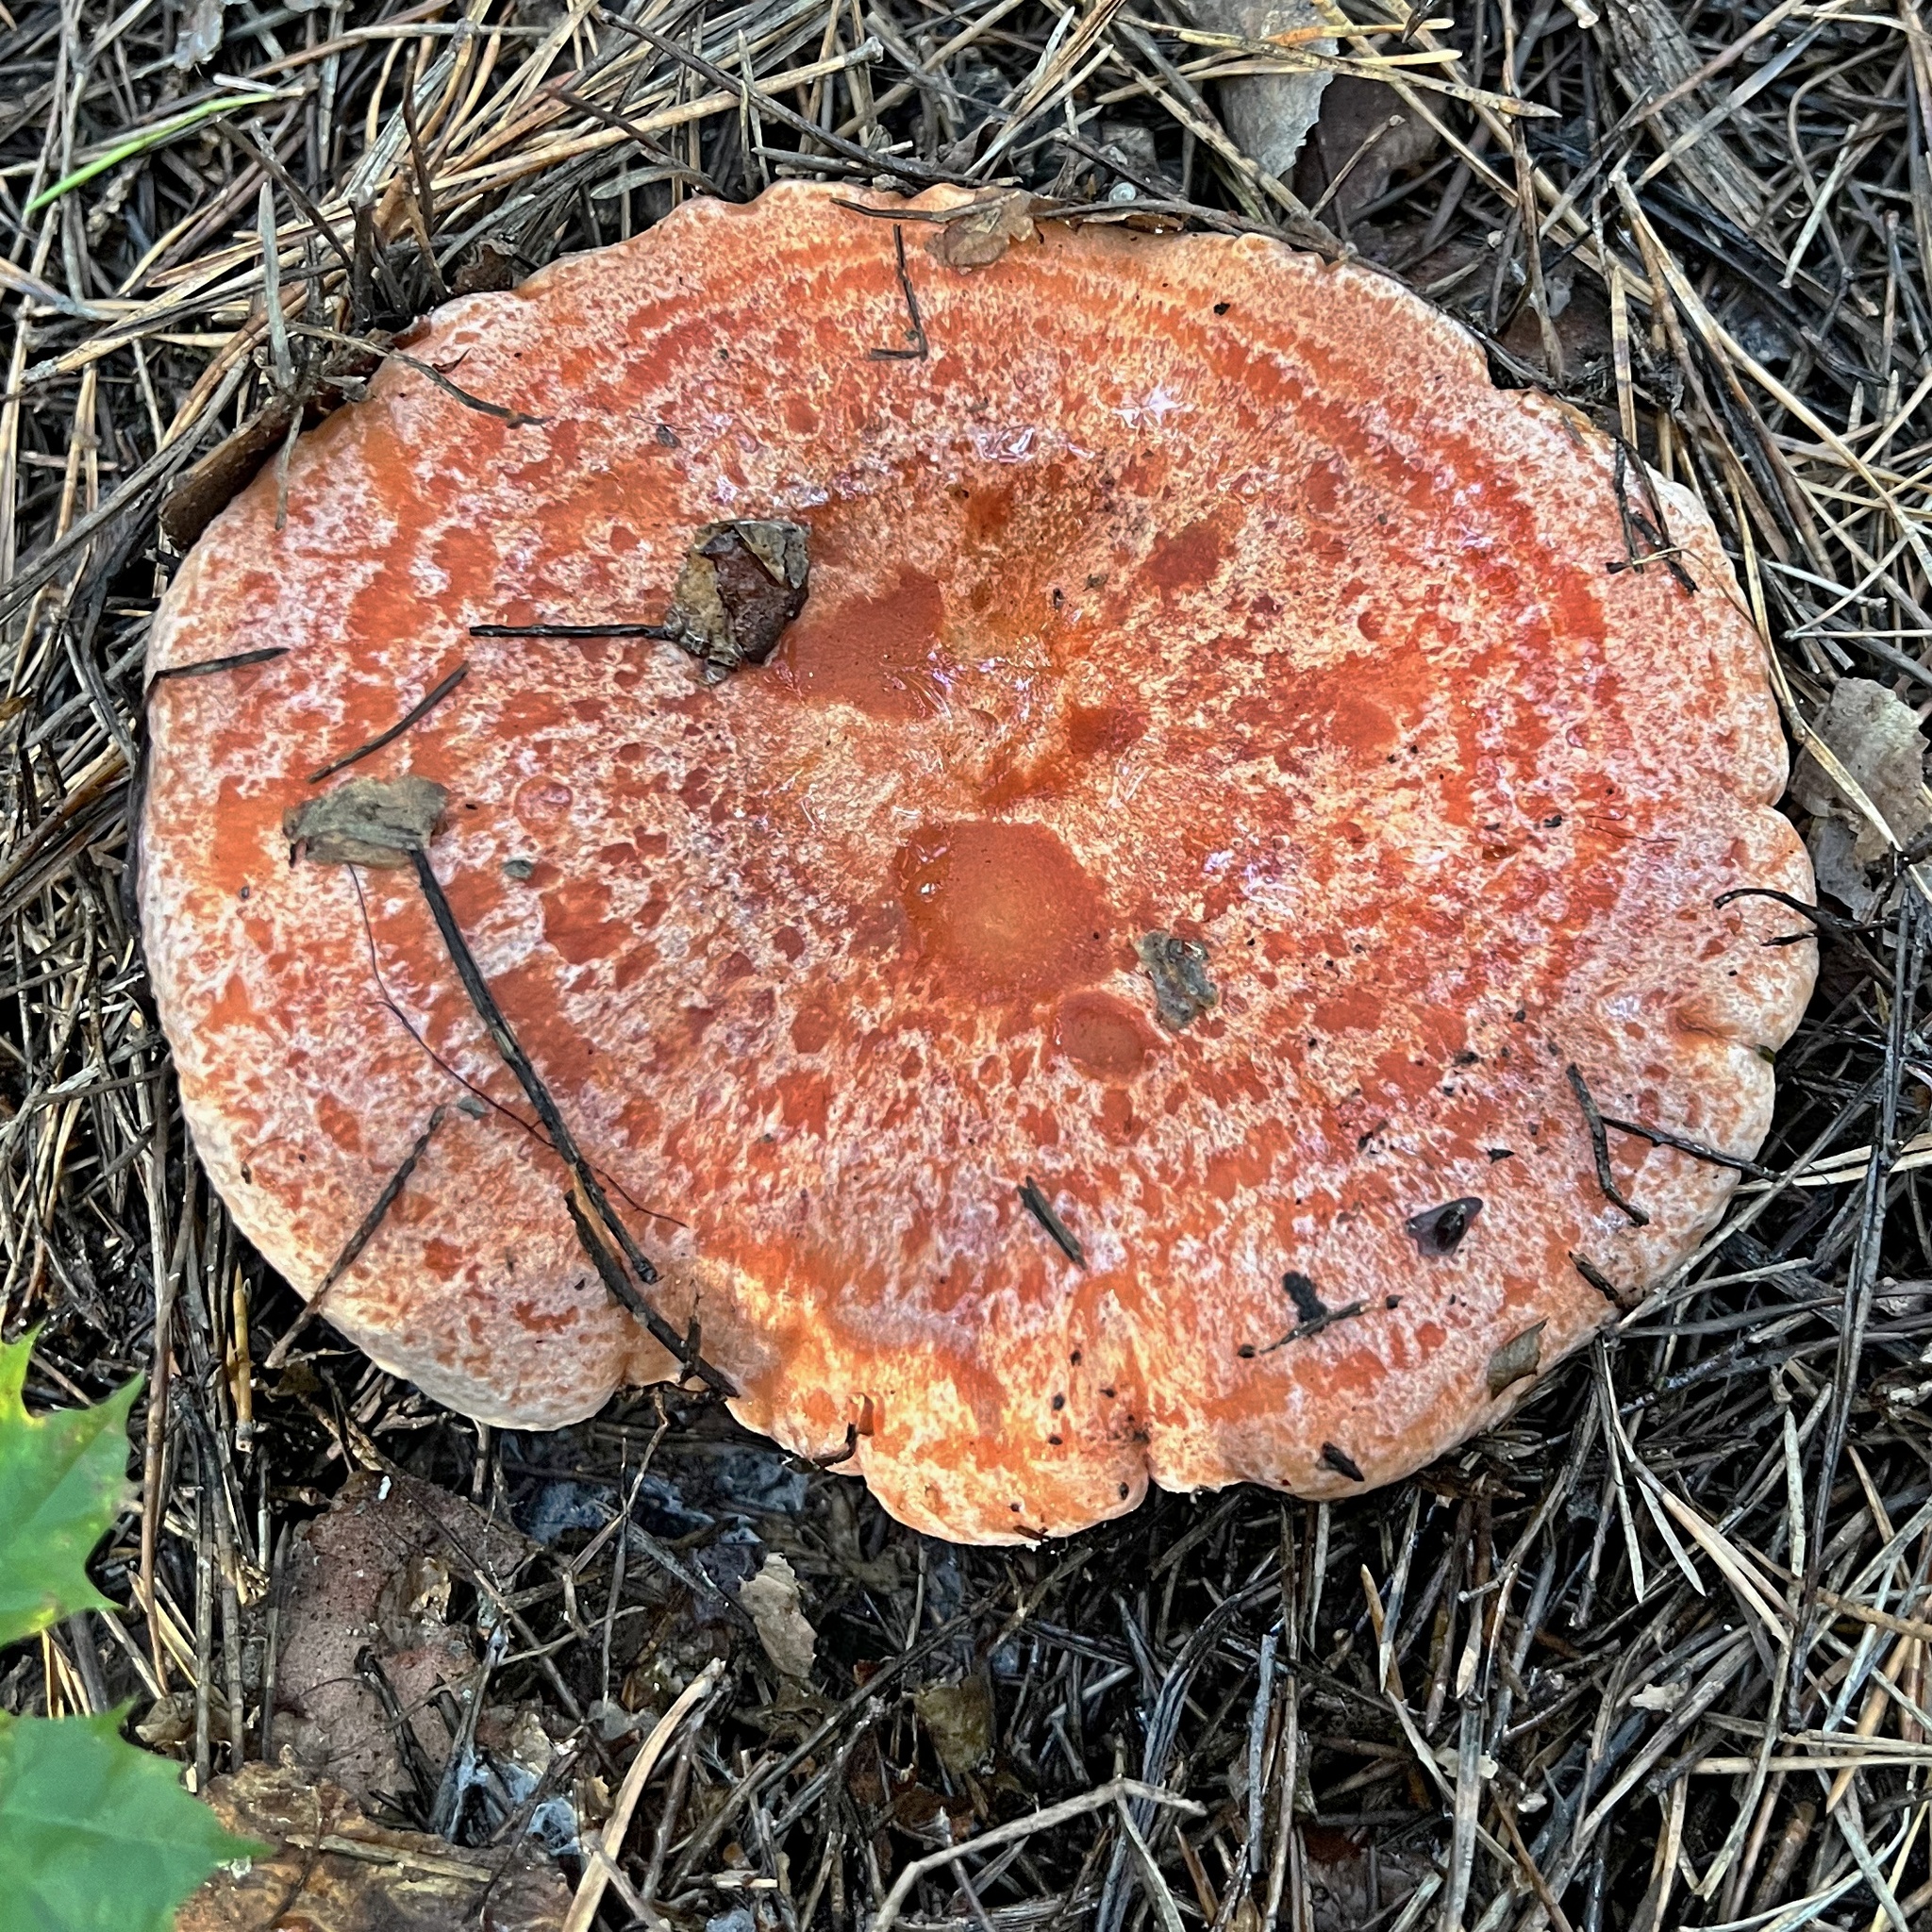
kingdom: Fungi
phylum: Basidiomycota
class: Agaricomycetes
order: Russulales
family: Russulaceae
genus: Lactarius
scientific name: Lactarius deliciosus
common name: Saffron milk-cap
